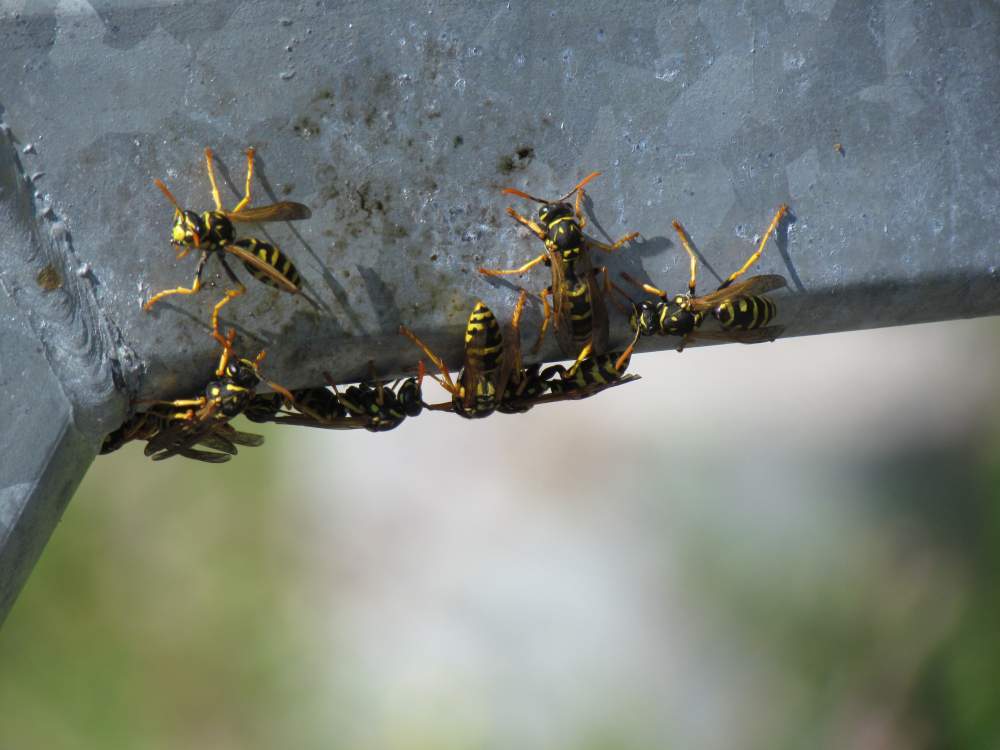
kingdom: Animalia
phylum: Arthropoda
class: Insecta
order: Hymenoptera
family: Eumenidae
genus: Polistes
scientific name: Polistes dominula
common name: Paper wasp
